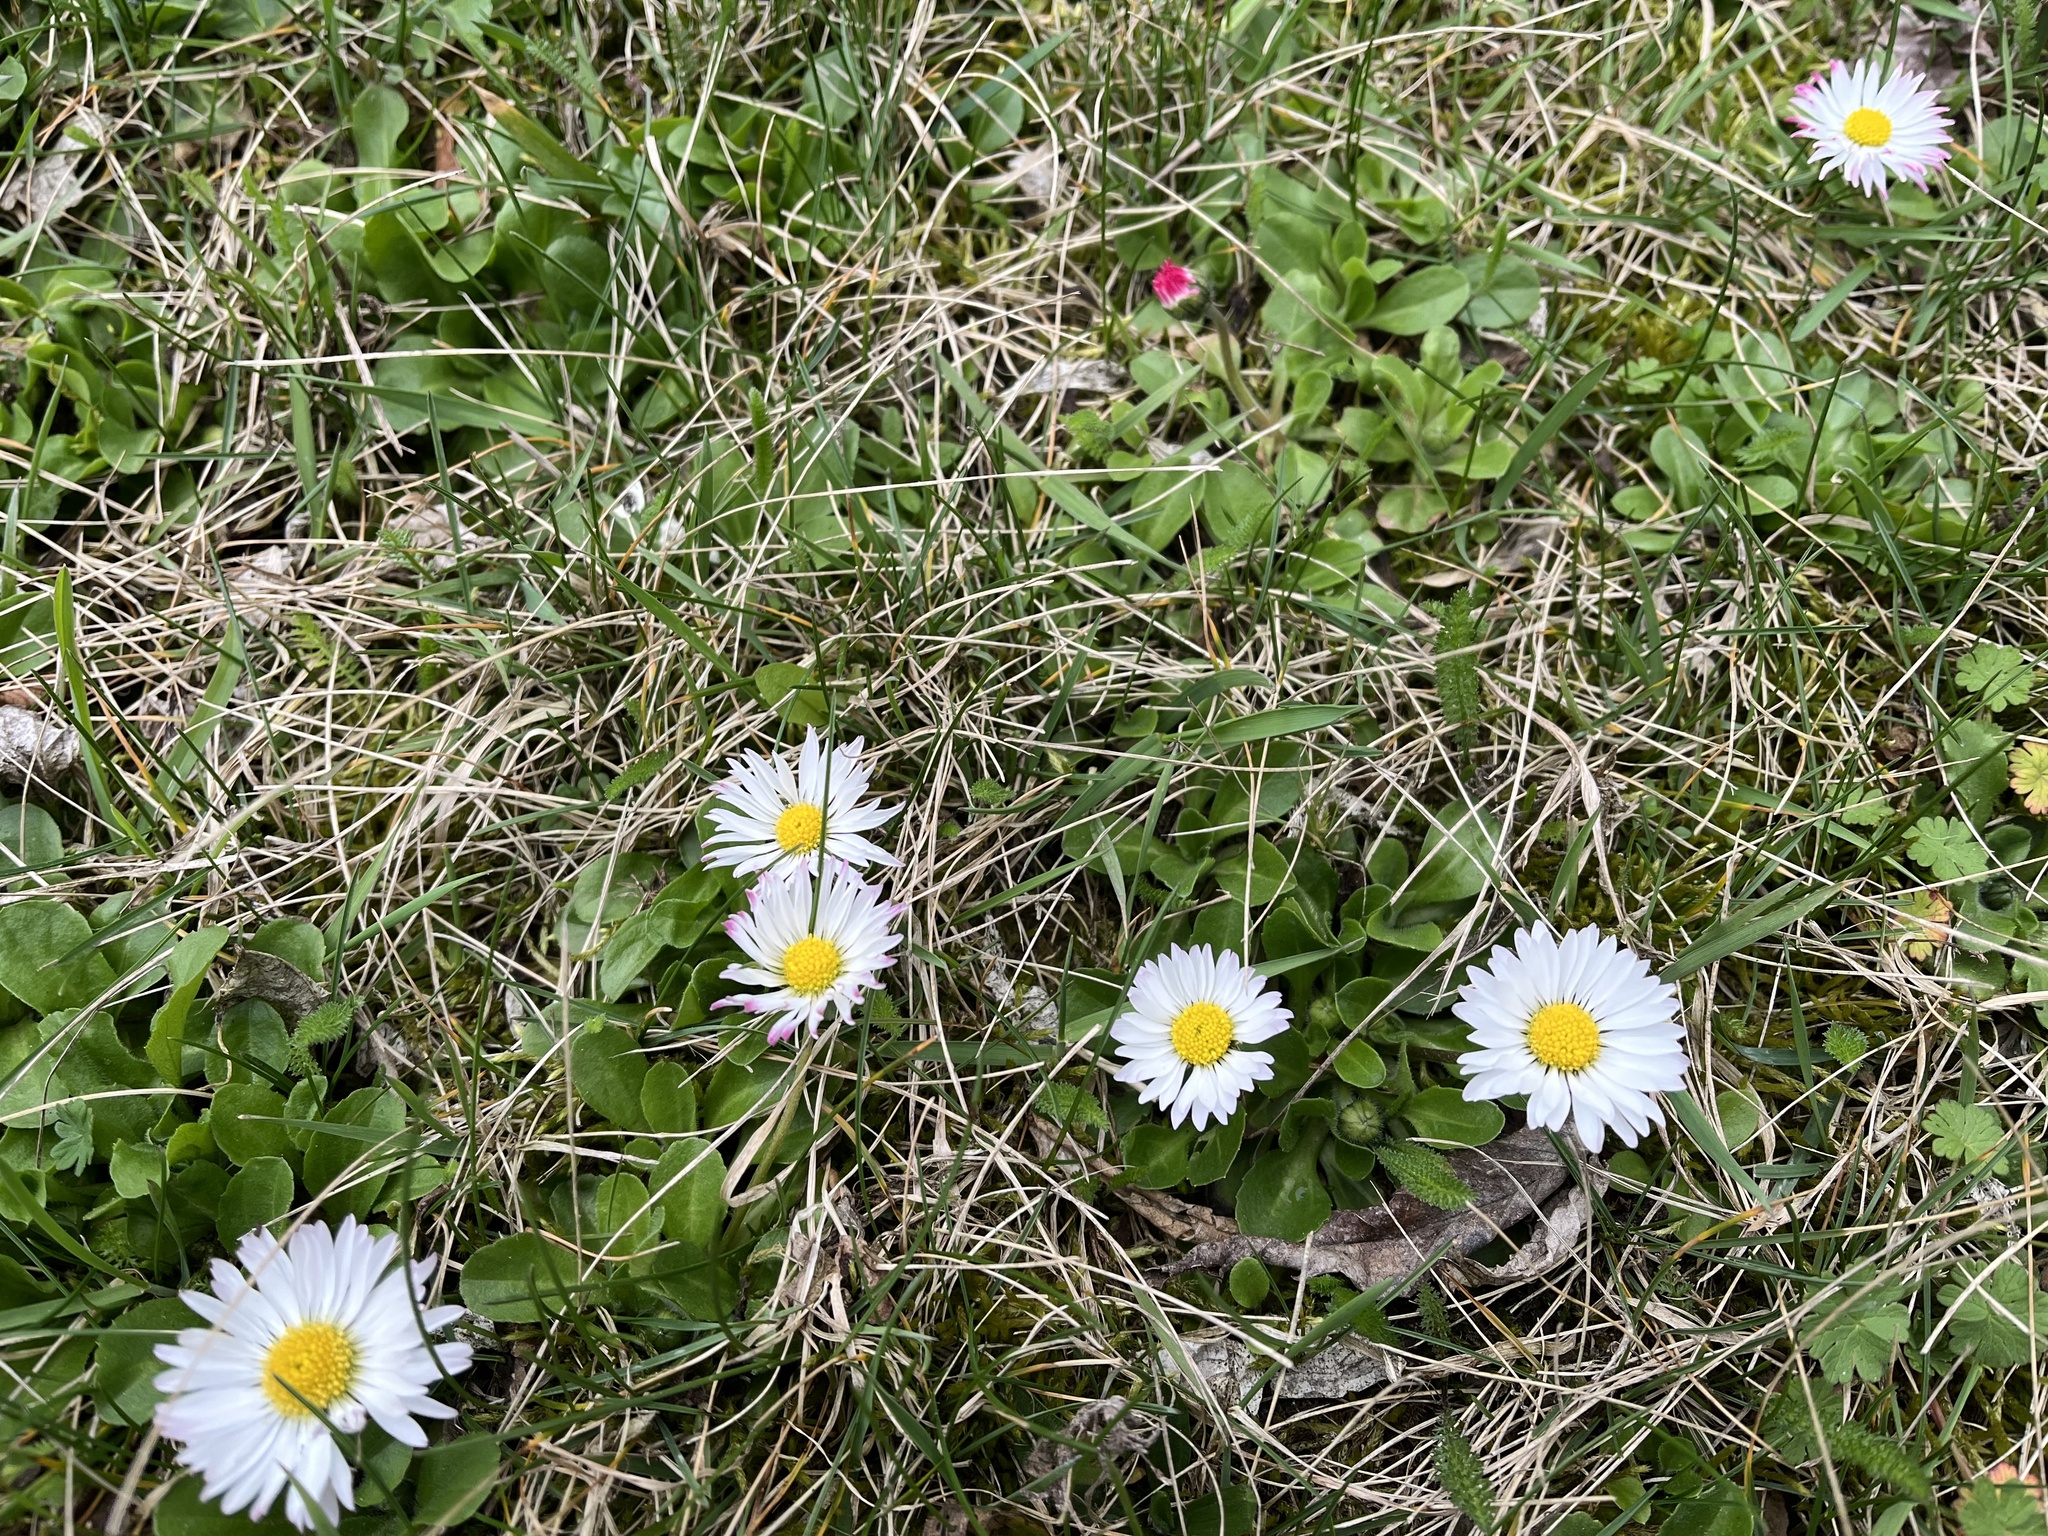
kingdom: Plantae
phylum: Tracheophyta
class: Magnoliopsida
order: Asterales
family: Asteraceae
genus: Bellis
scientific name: Bellis perennis
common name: Lawndaisy
